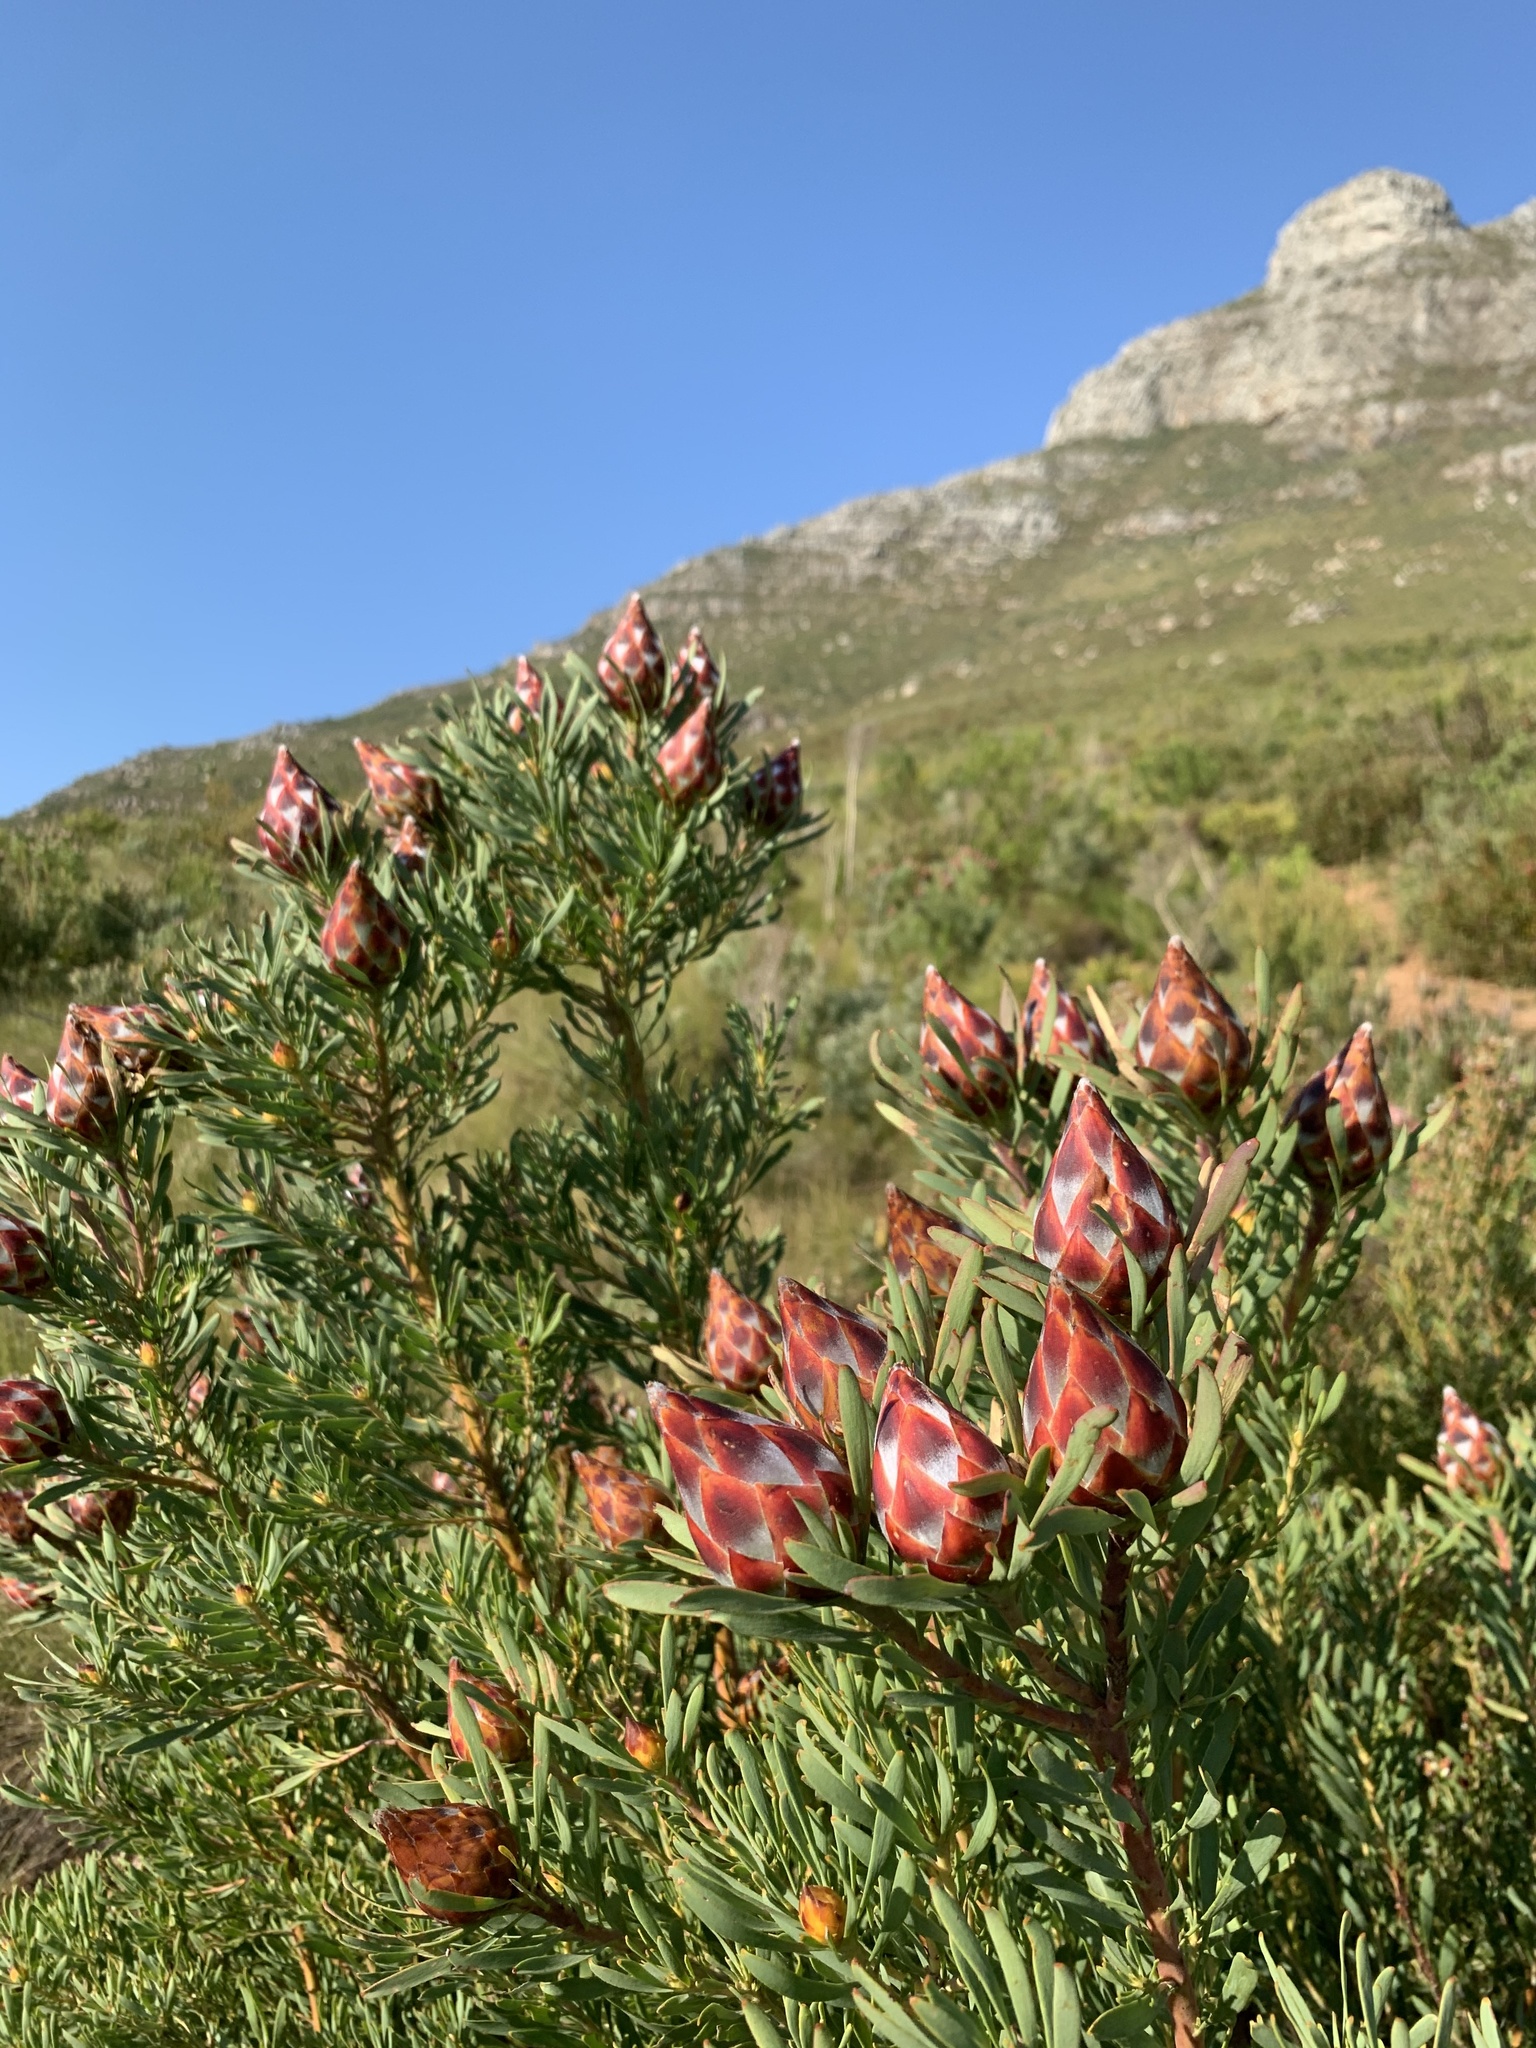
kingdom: Plantae
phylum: Tracheophyta
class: Magnoliopsida
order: Proteales
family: Proteaceae
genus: Leucadendron
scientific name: Leucadendron rubrum
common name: Spinning top
